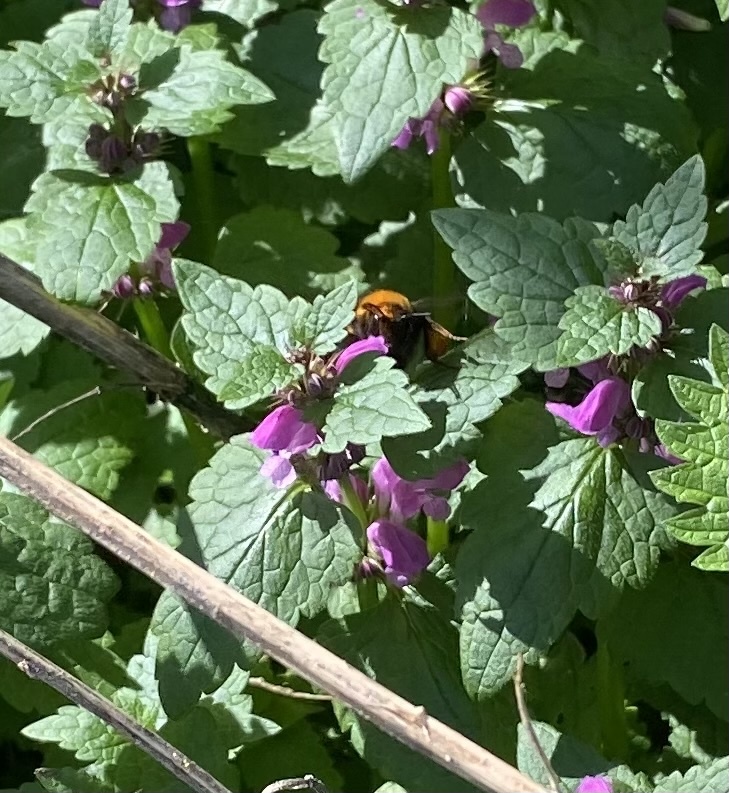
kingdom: Animalia
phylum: Arthropoda
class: Insecta
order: Hymenoptera
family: Apidae
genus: Bombus
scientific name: Bombus
